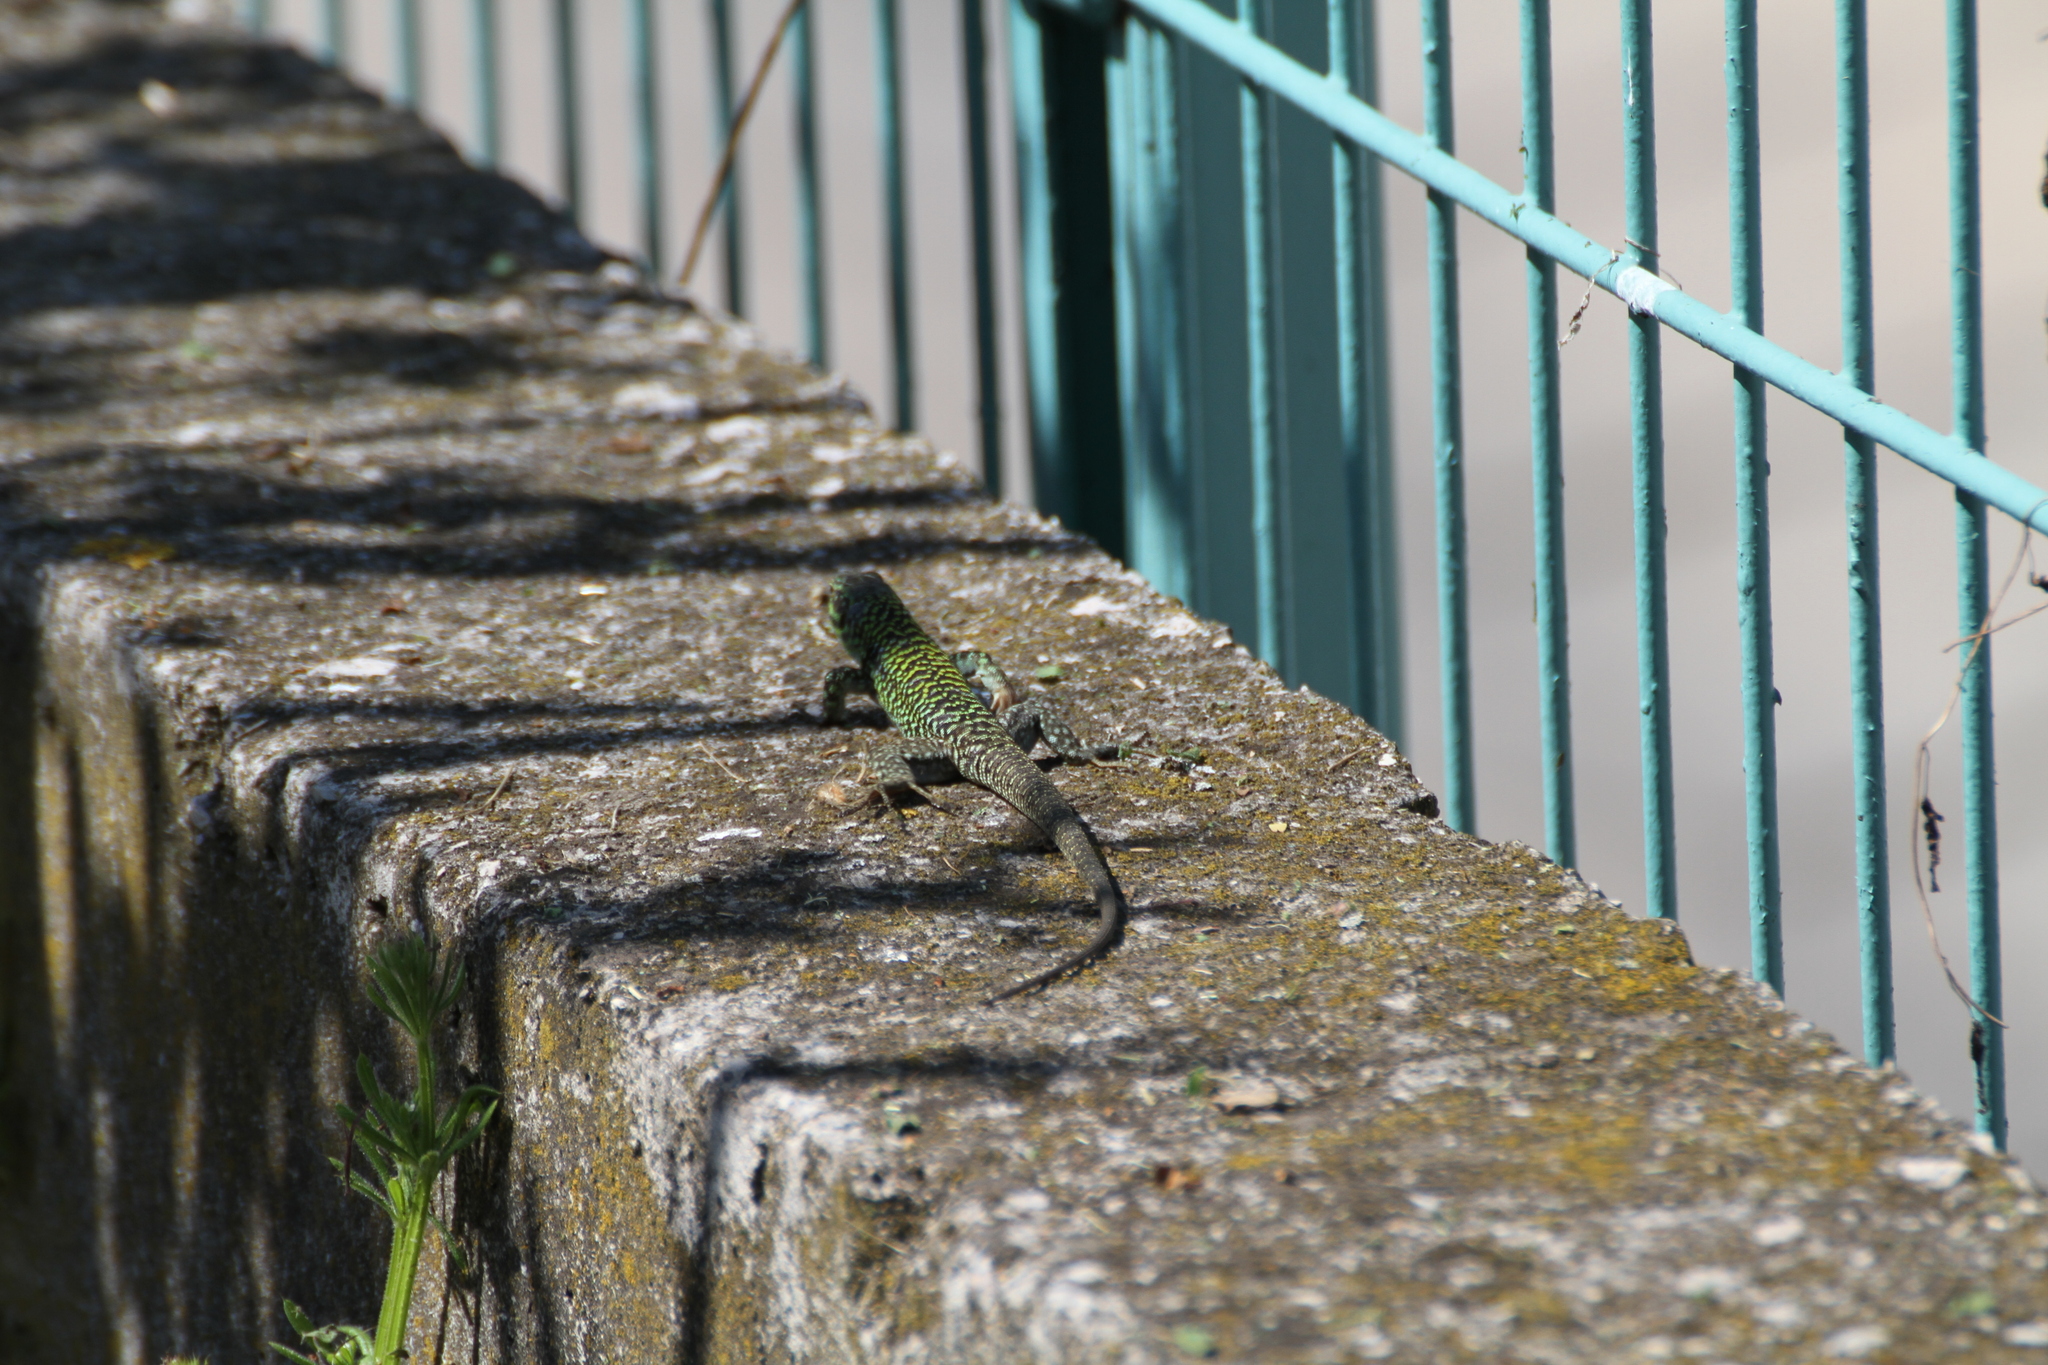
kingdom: Animalia
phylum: Chordata
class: Squamata
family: Lacertidae
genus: Podarcis
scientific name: Podarcis siculus
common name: Italian wall lizard
